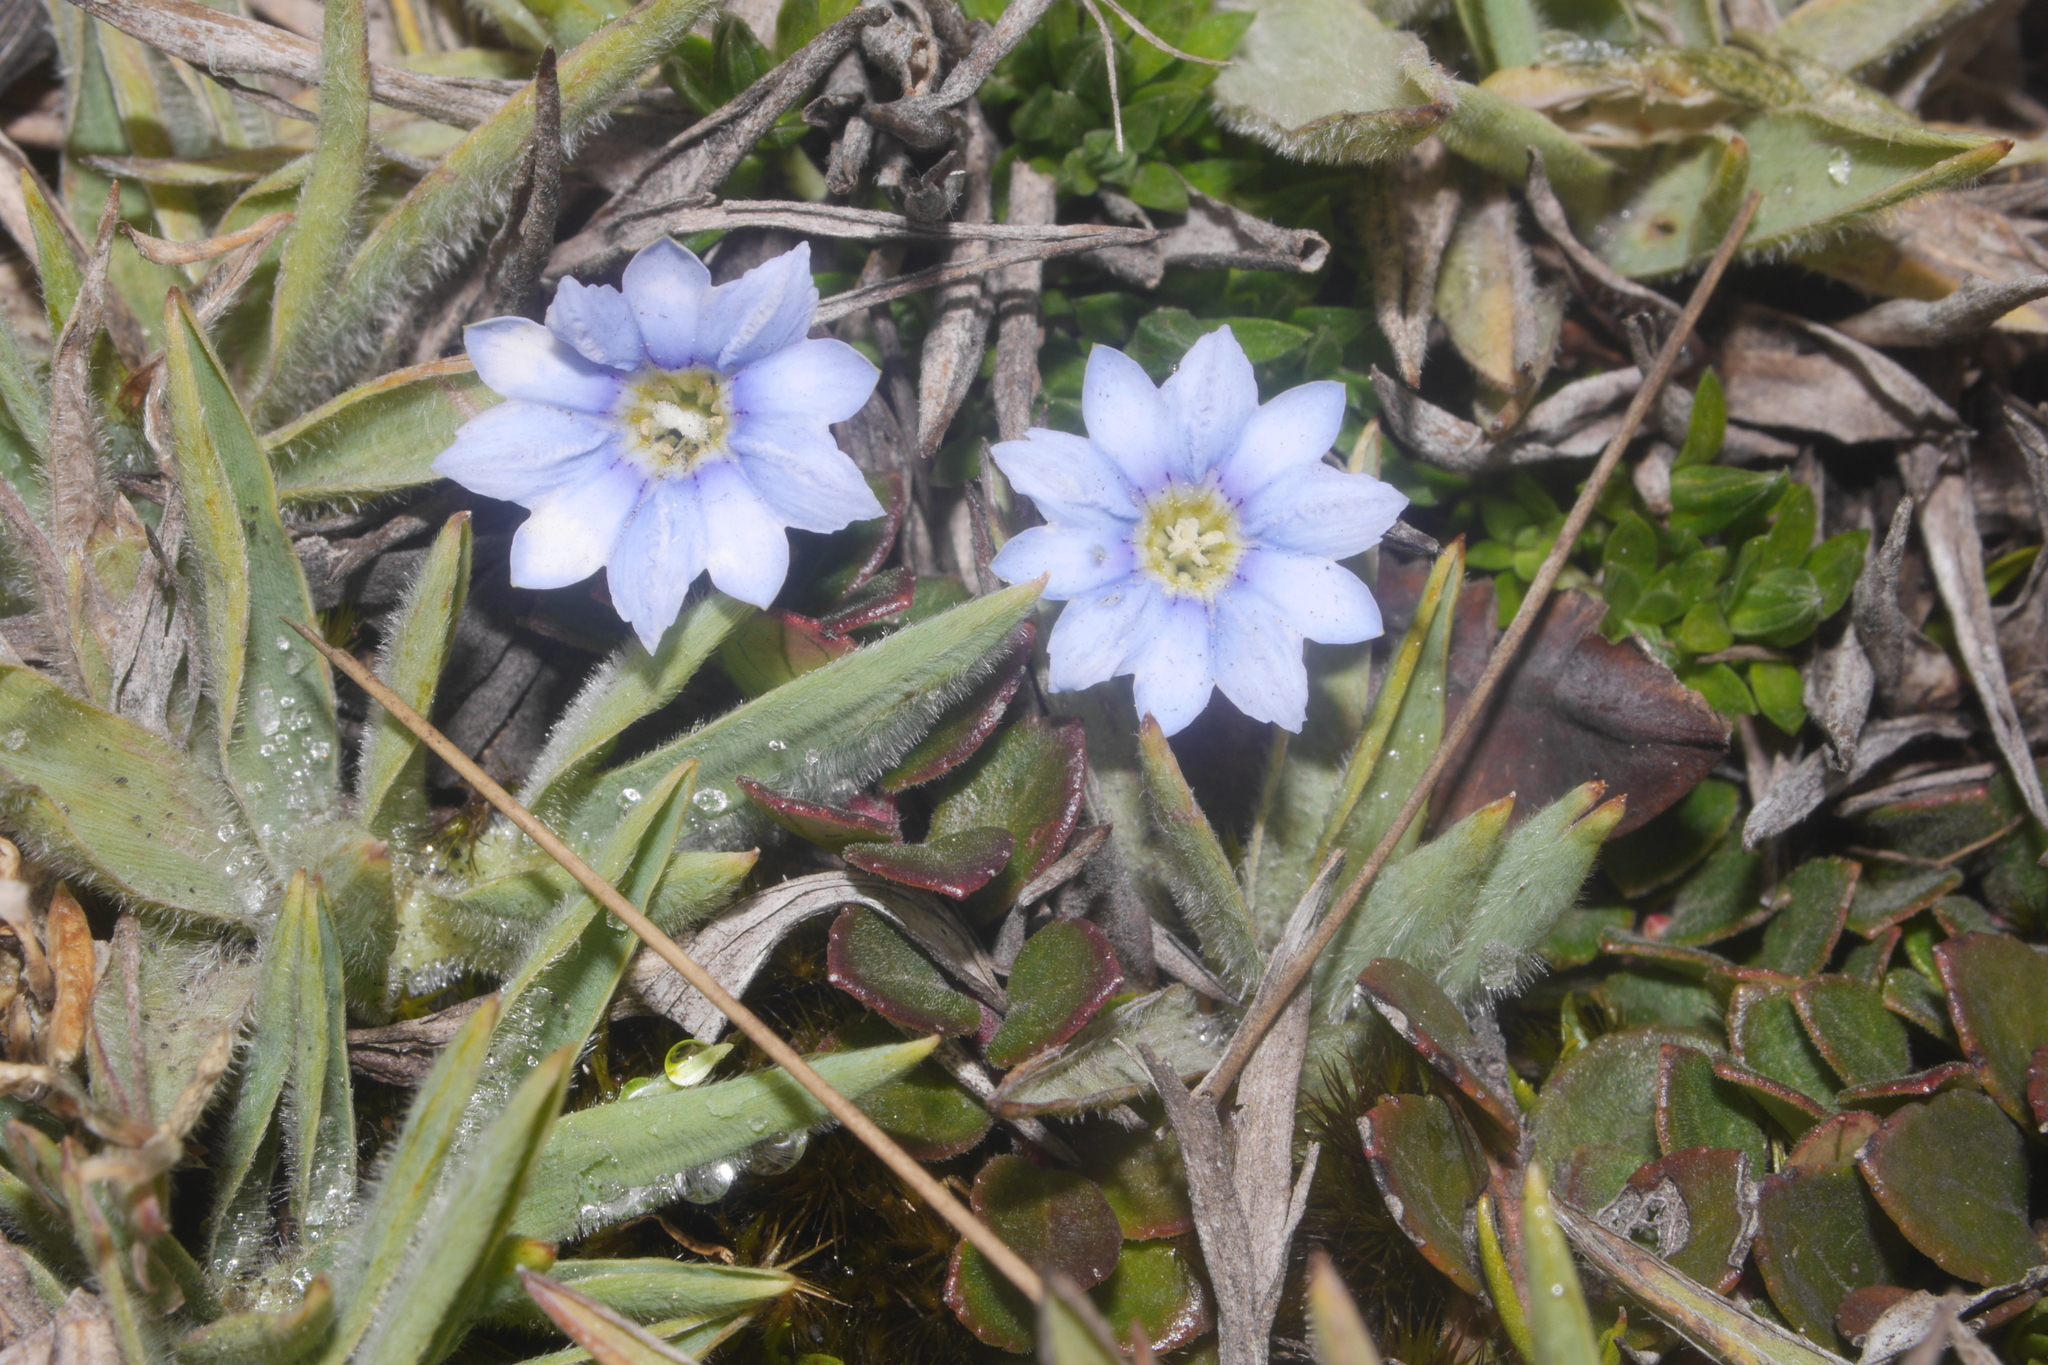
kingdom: Plantae
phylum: Tracheophyta
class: Magnoliopsida
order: Gentianales
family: Gentianaceae
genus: Gentiana
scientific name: Gentiana sedifolia
